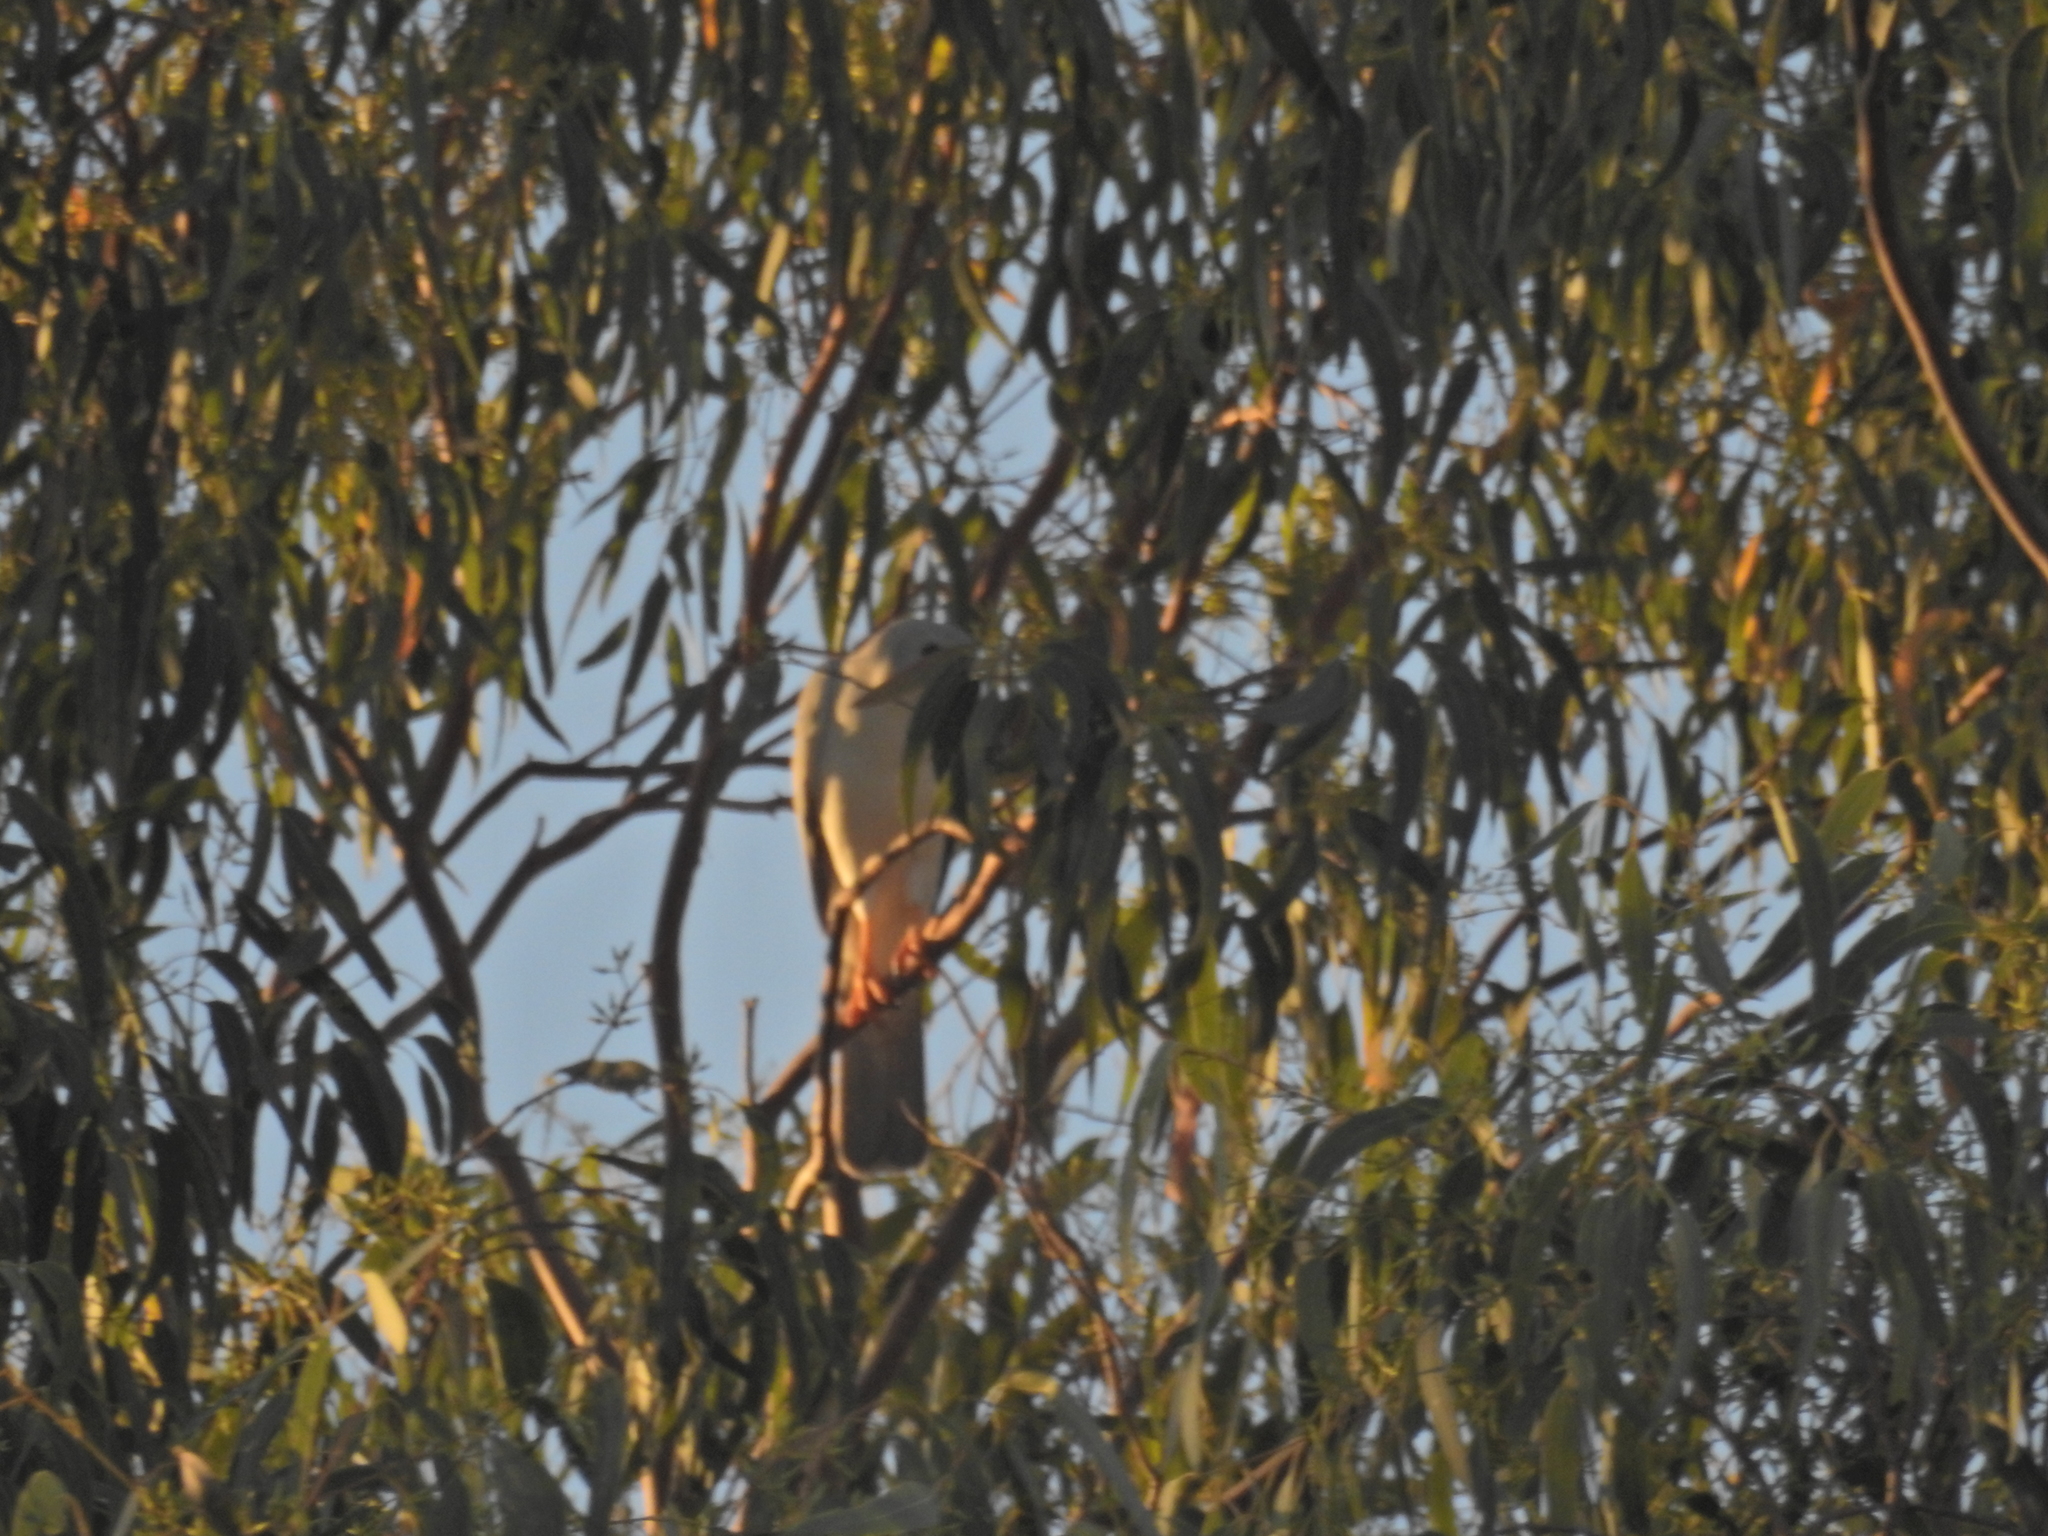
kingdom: Animalia
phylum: Chordata
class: Aves
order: Accipitriformes
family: Accipitridae
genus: Accipiter
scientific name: Accipiter novaehollandiae
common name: Grey goshawk
